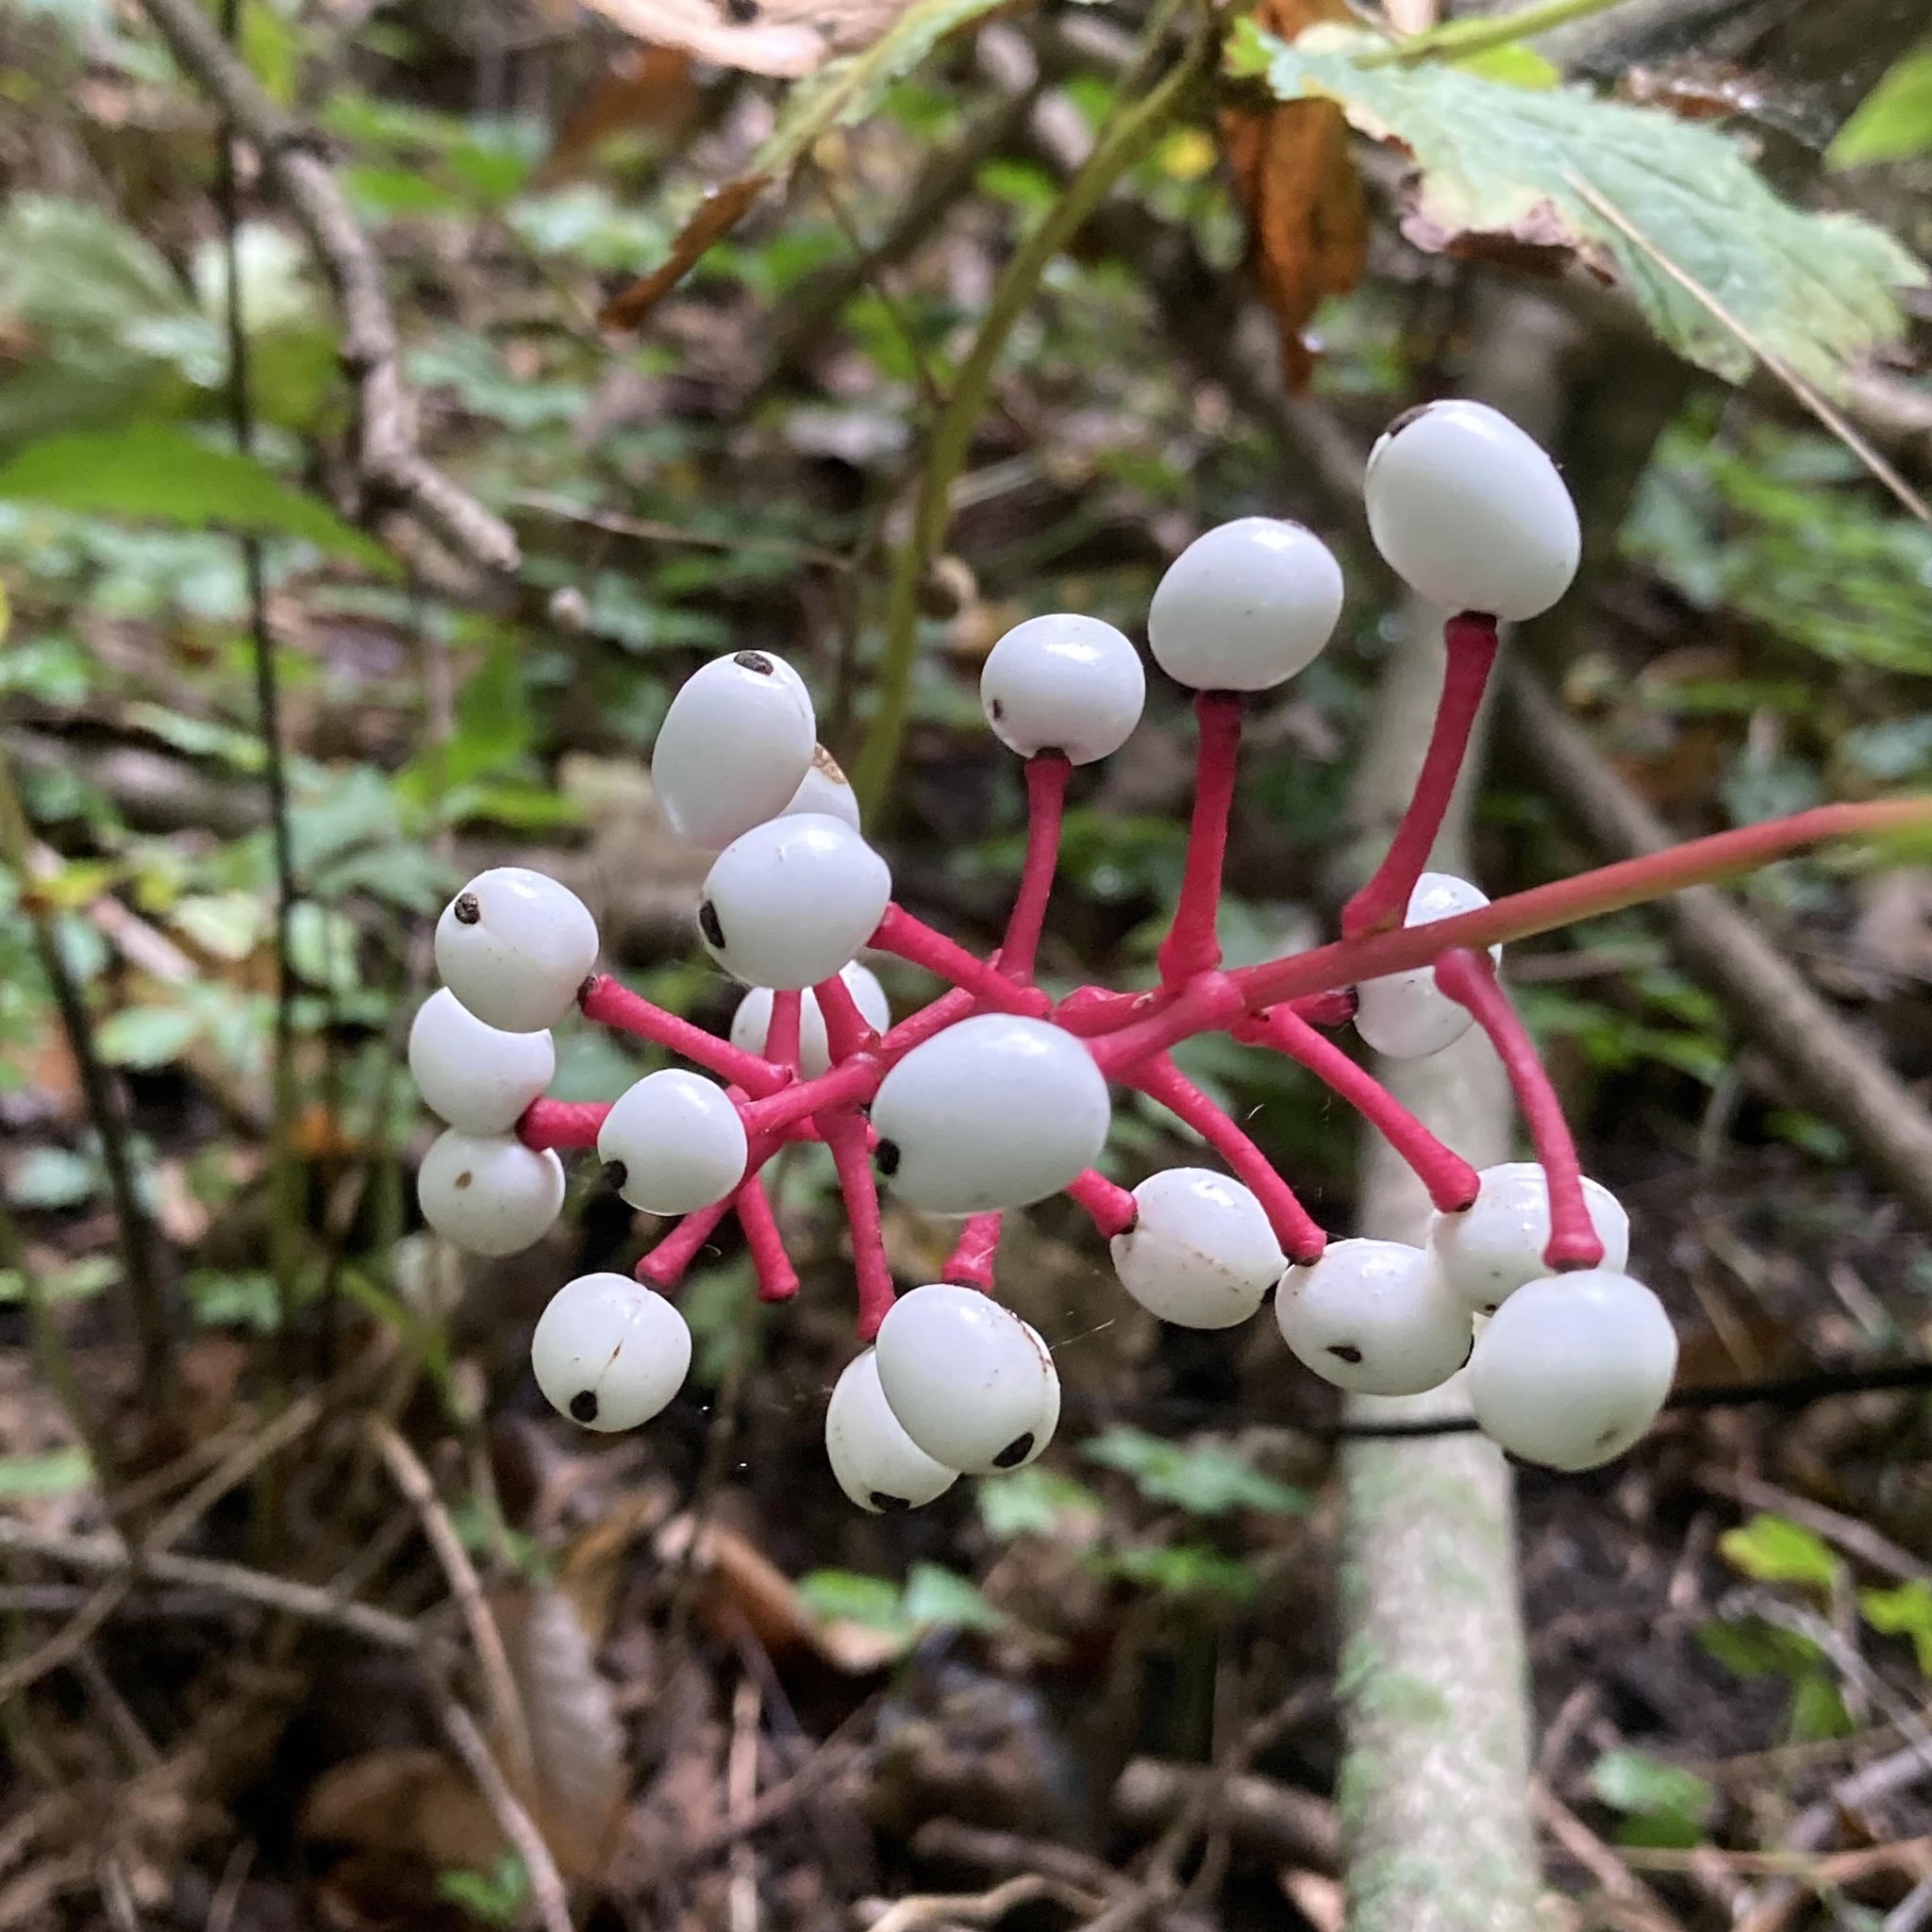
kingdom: Plantae
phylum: Tracheophyta
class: Magnoliopsida
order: Ranunculales
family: Ranunculaceae
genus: Actaea
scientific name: Actaea pachypoda
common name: Doll's-eyes
